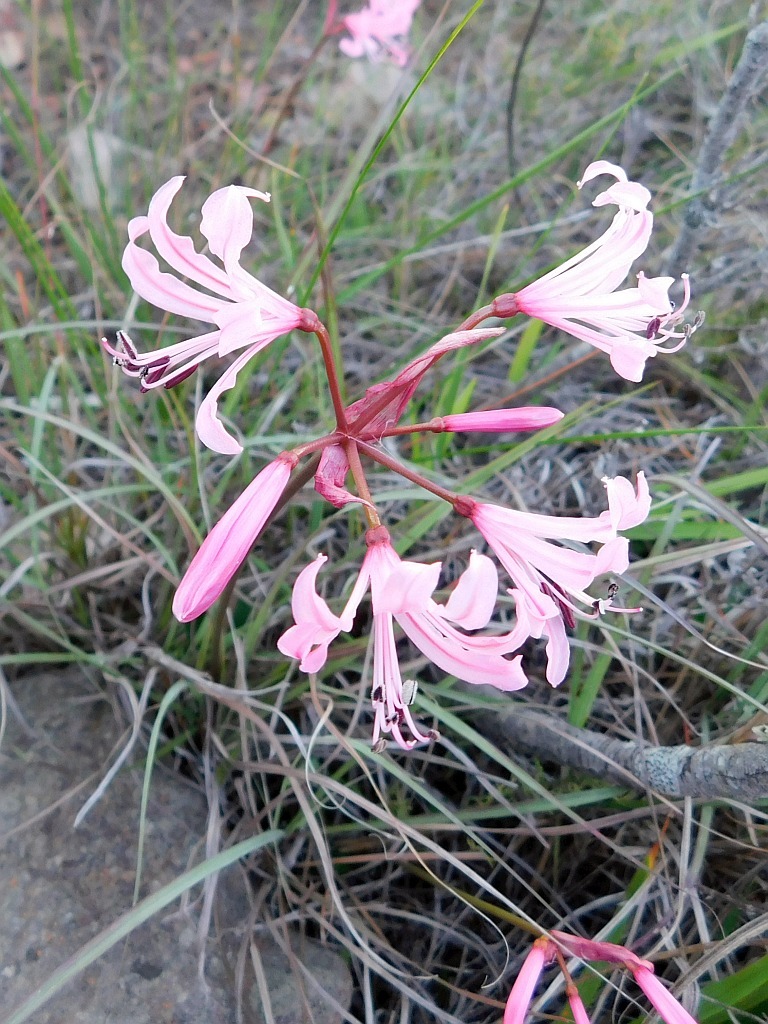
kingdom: Plantae
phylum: Tracheophyta
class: Liliopsida
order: Asparagales
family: Amaryllidaceae
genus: Nerine
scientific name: Nerine humilis
